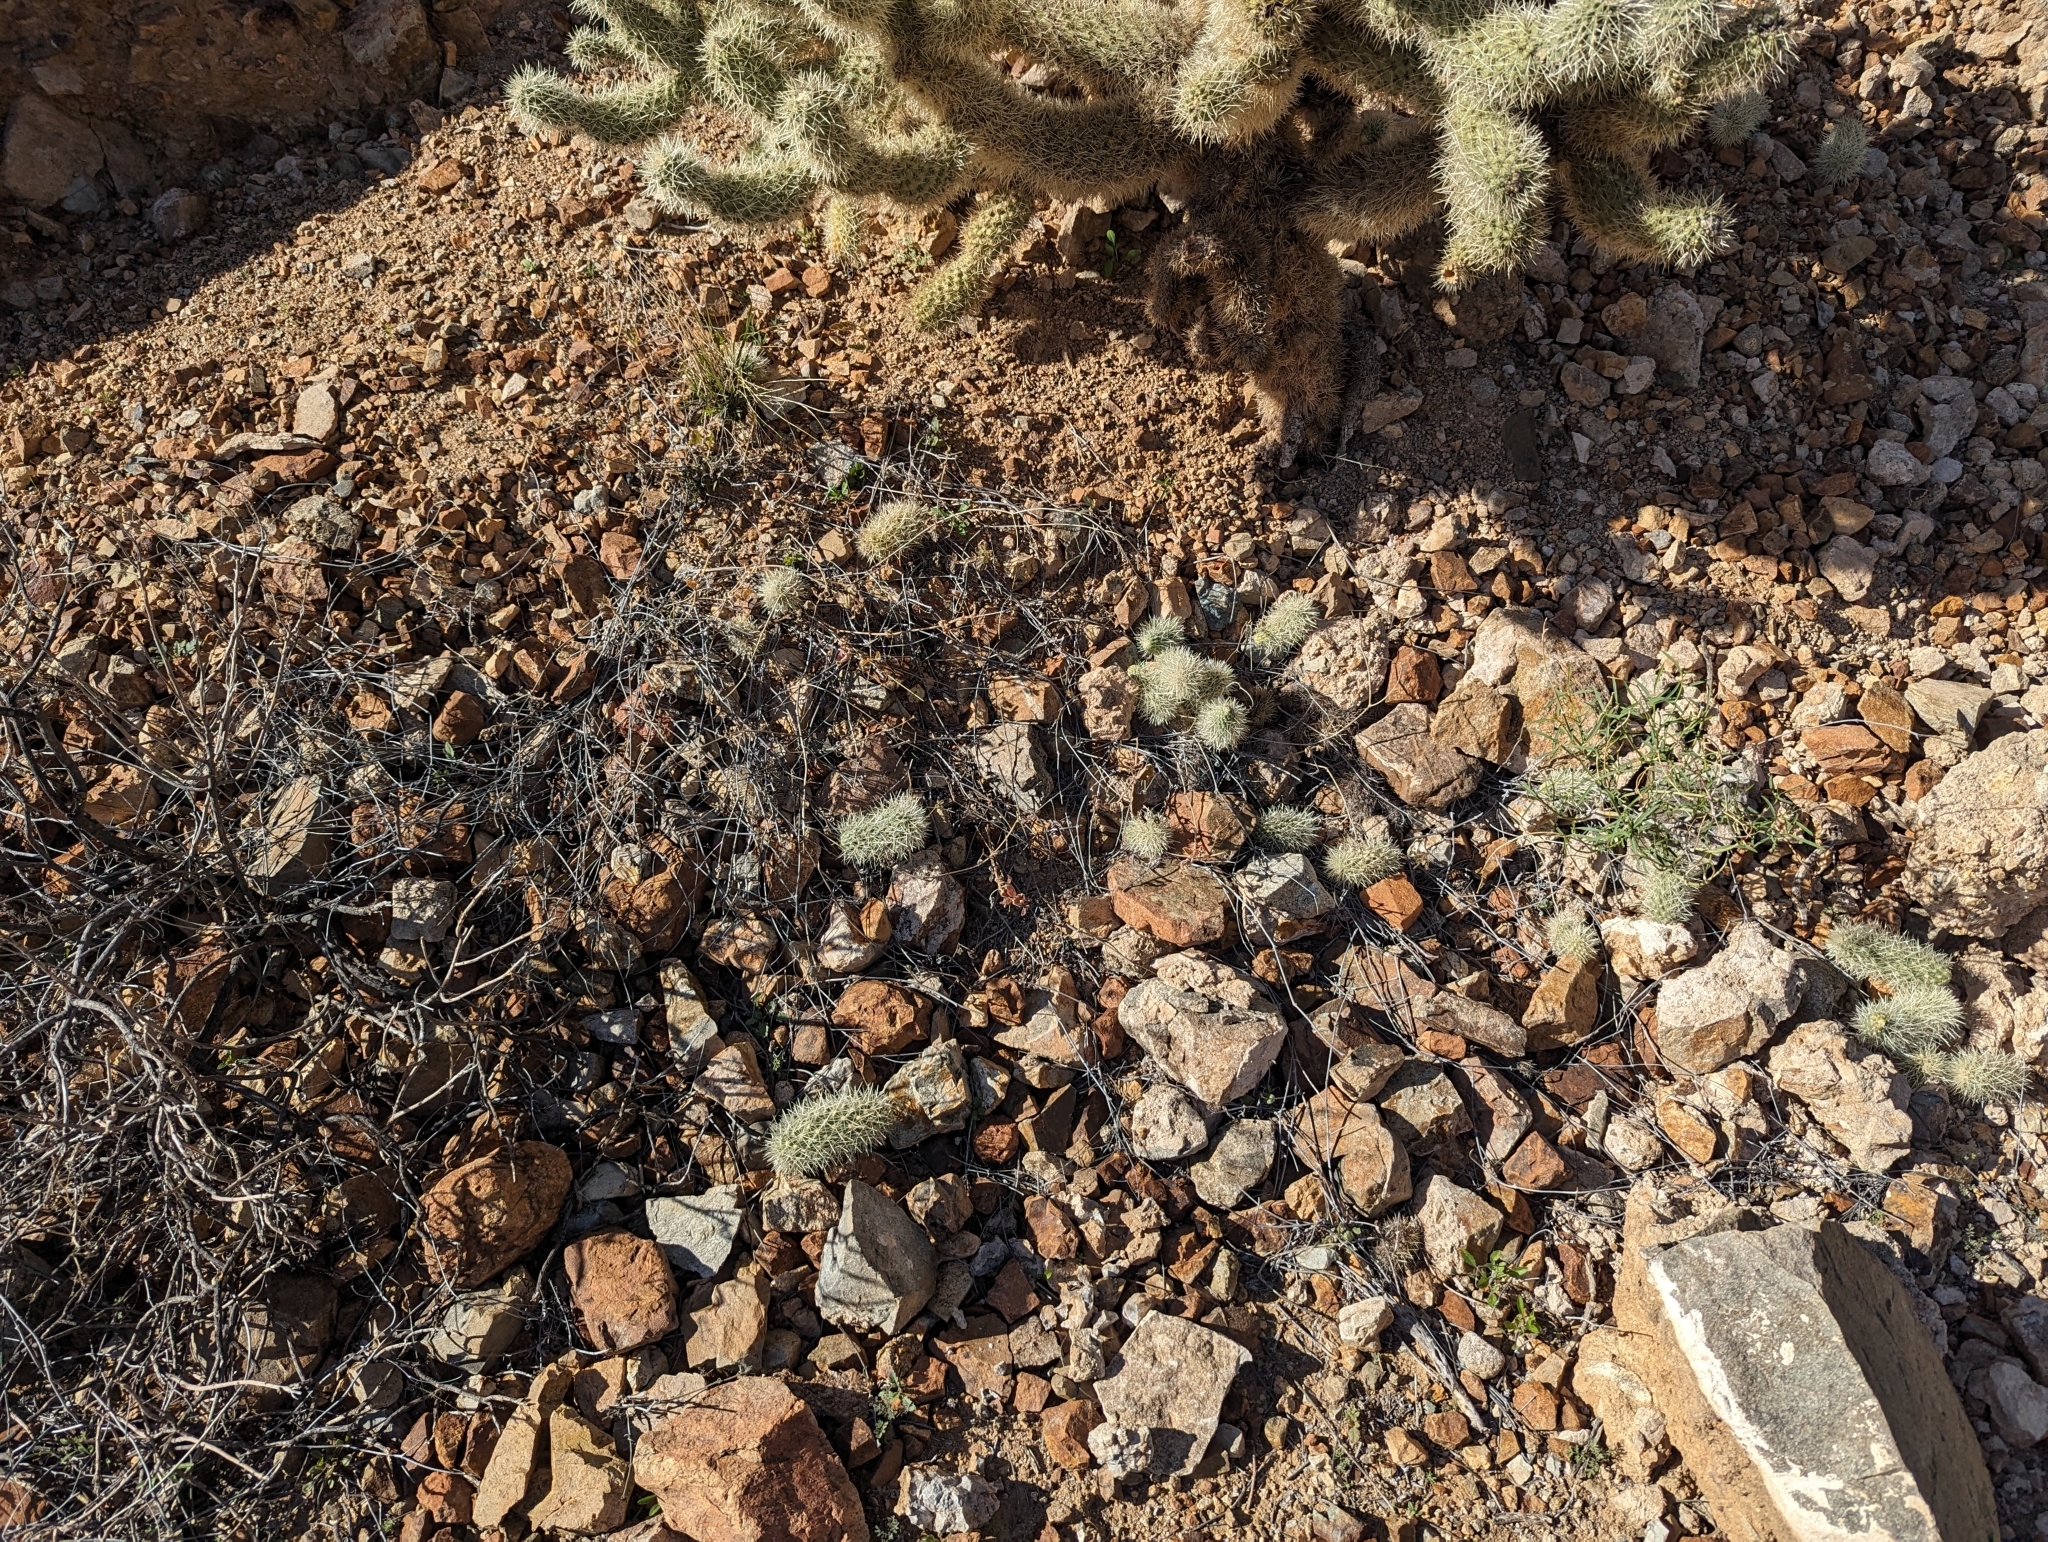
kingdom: Plantae
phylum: Tracheophyta
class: Magnoliopsida
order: Caryophyllales
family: Cactaceae
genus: Cylindropuntia
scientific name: Cylindropuntia fosbergii
